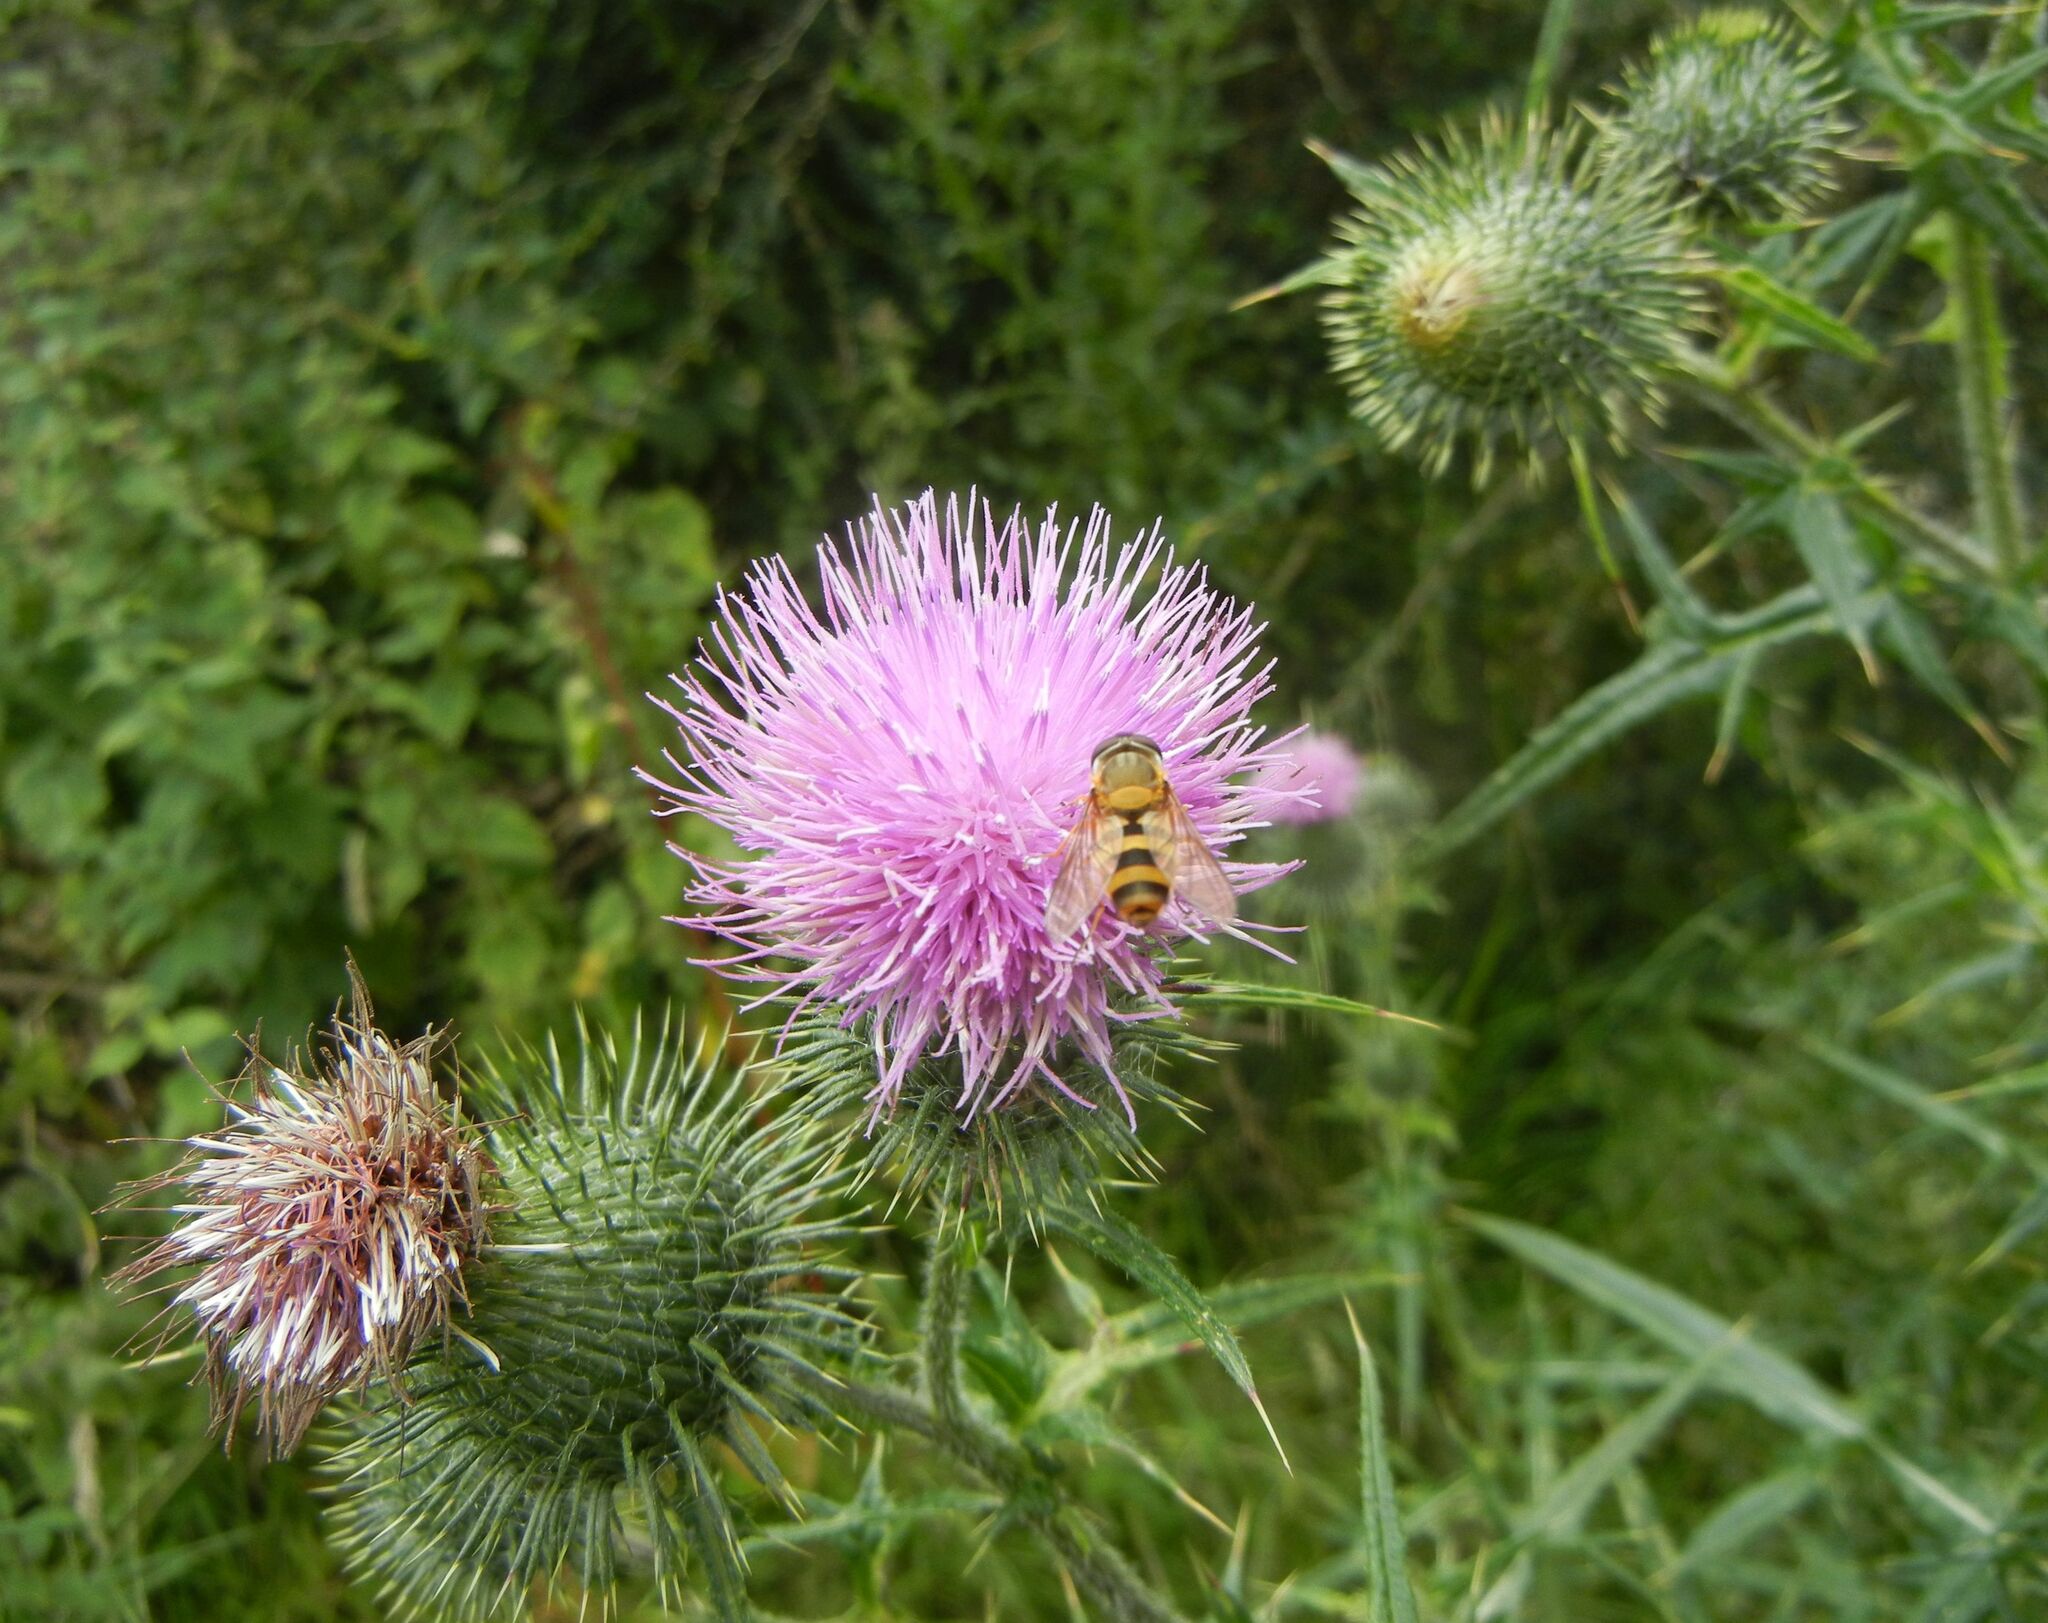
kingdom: Plantae
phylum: Tracheophyta
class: Magnoliopsida
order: Asterales
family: Asteraceae
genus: Cirsium
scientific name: Cirsium vulgare
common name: Bull thistle
